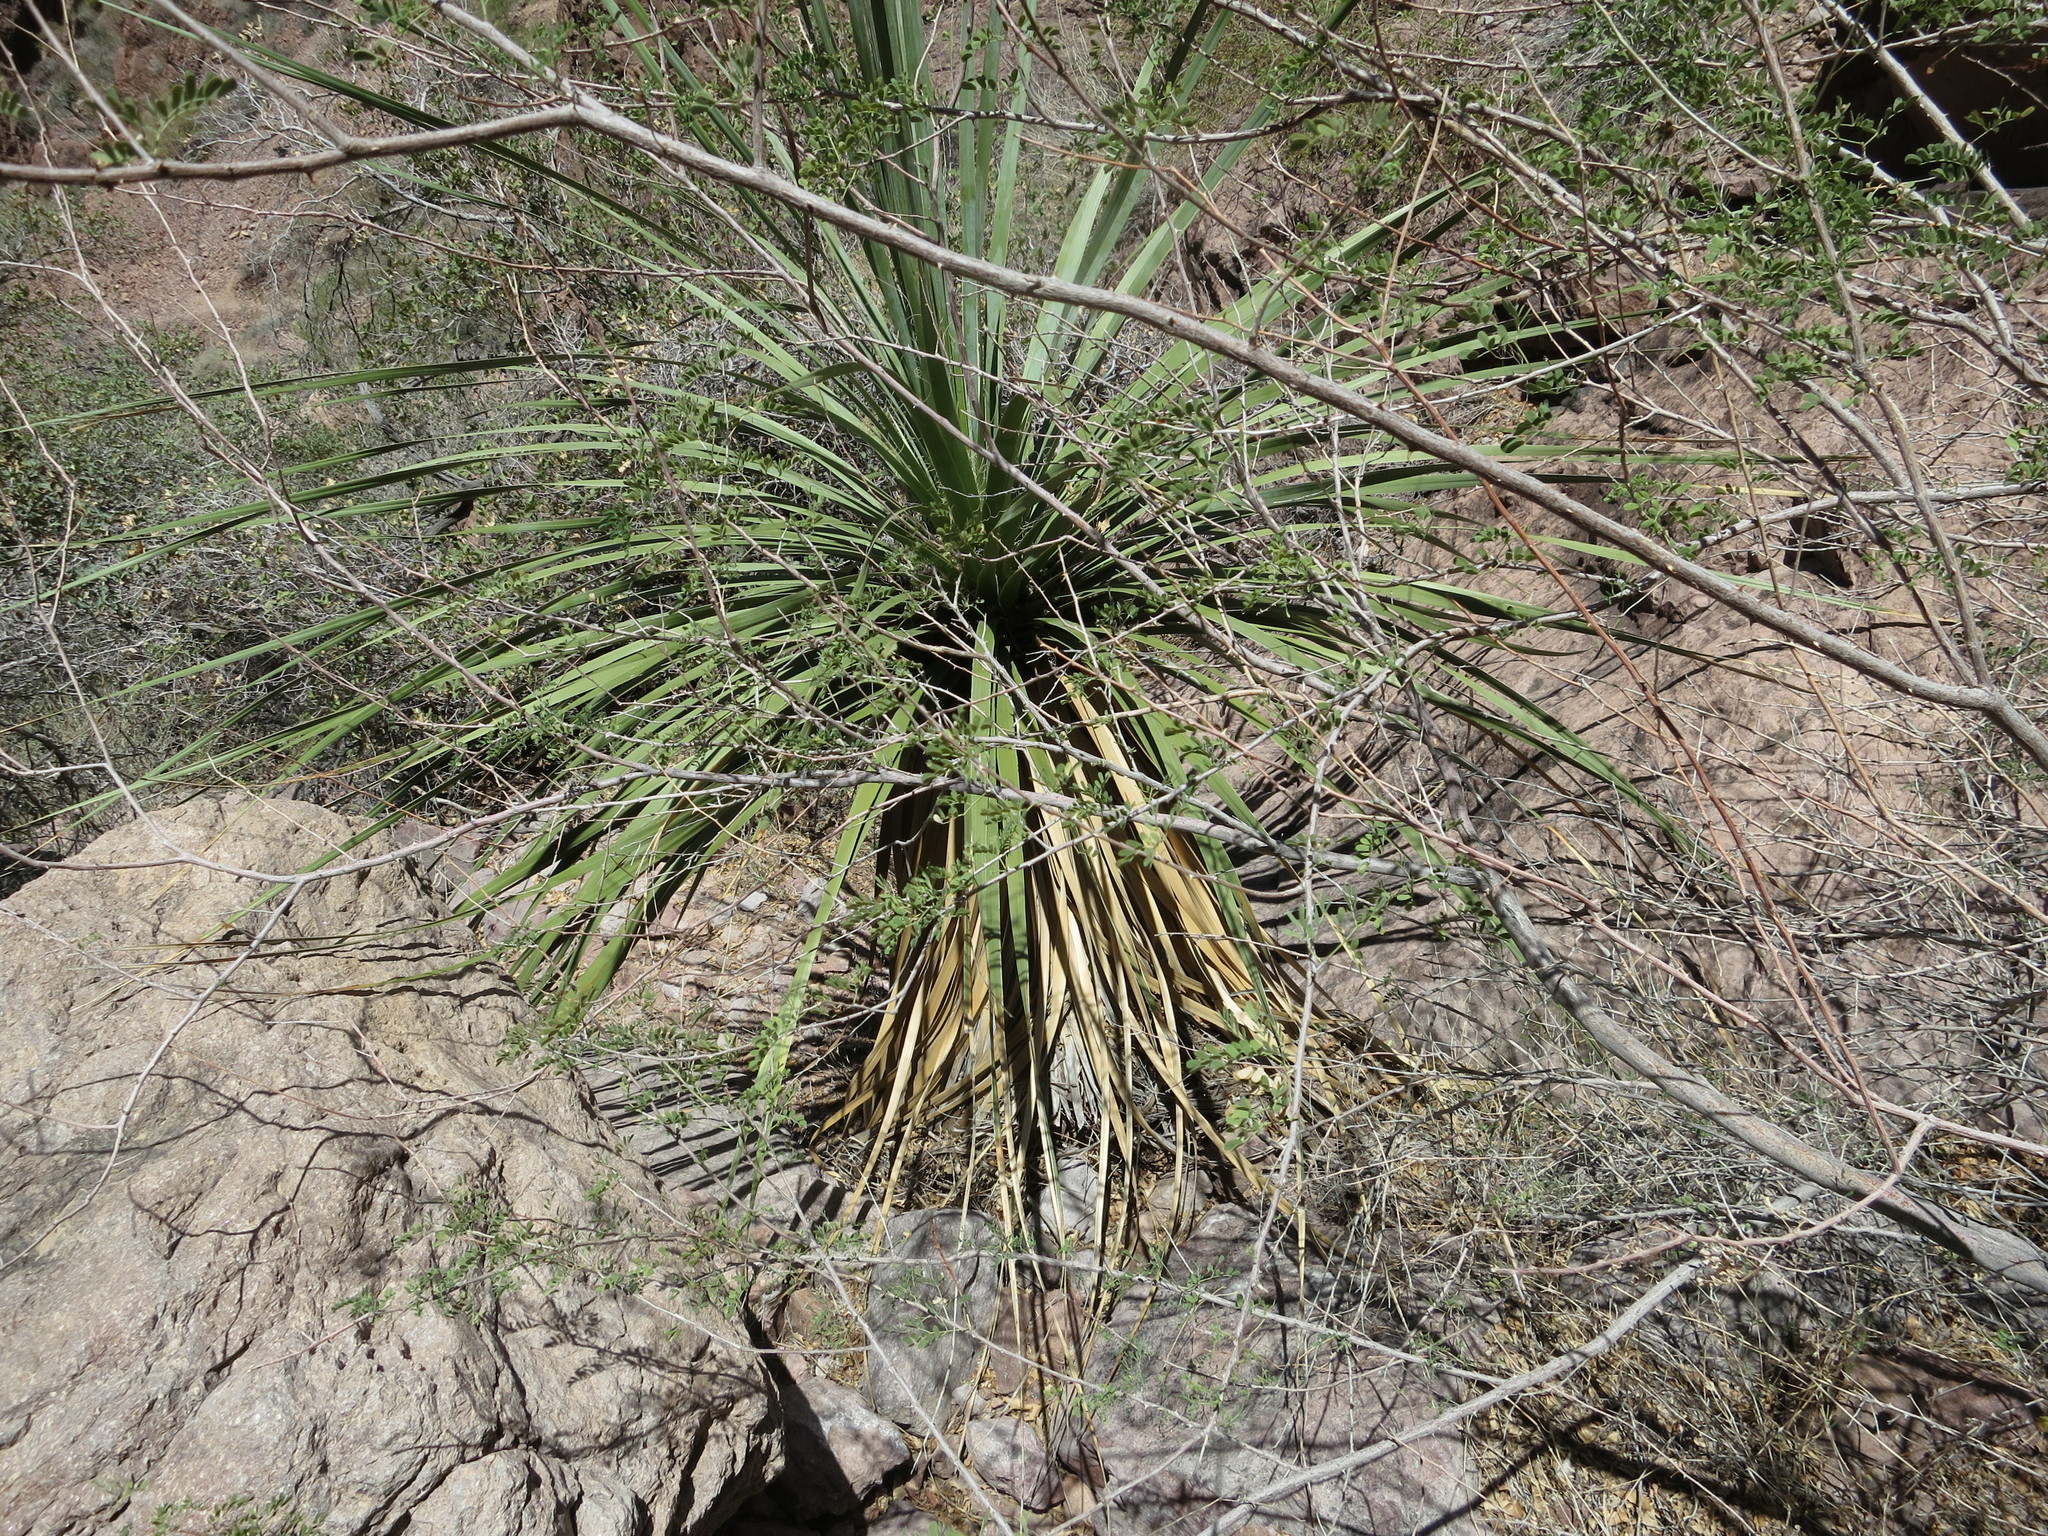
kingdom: Plantae
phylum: Tracheophyta
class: Liliopsida
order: Asparagales
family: Asparagaceae
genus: Nolina
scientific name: Nolina bigelovii
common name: Bigelow bear-grass
